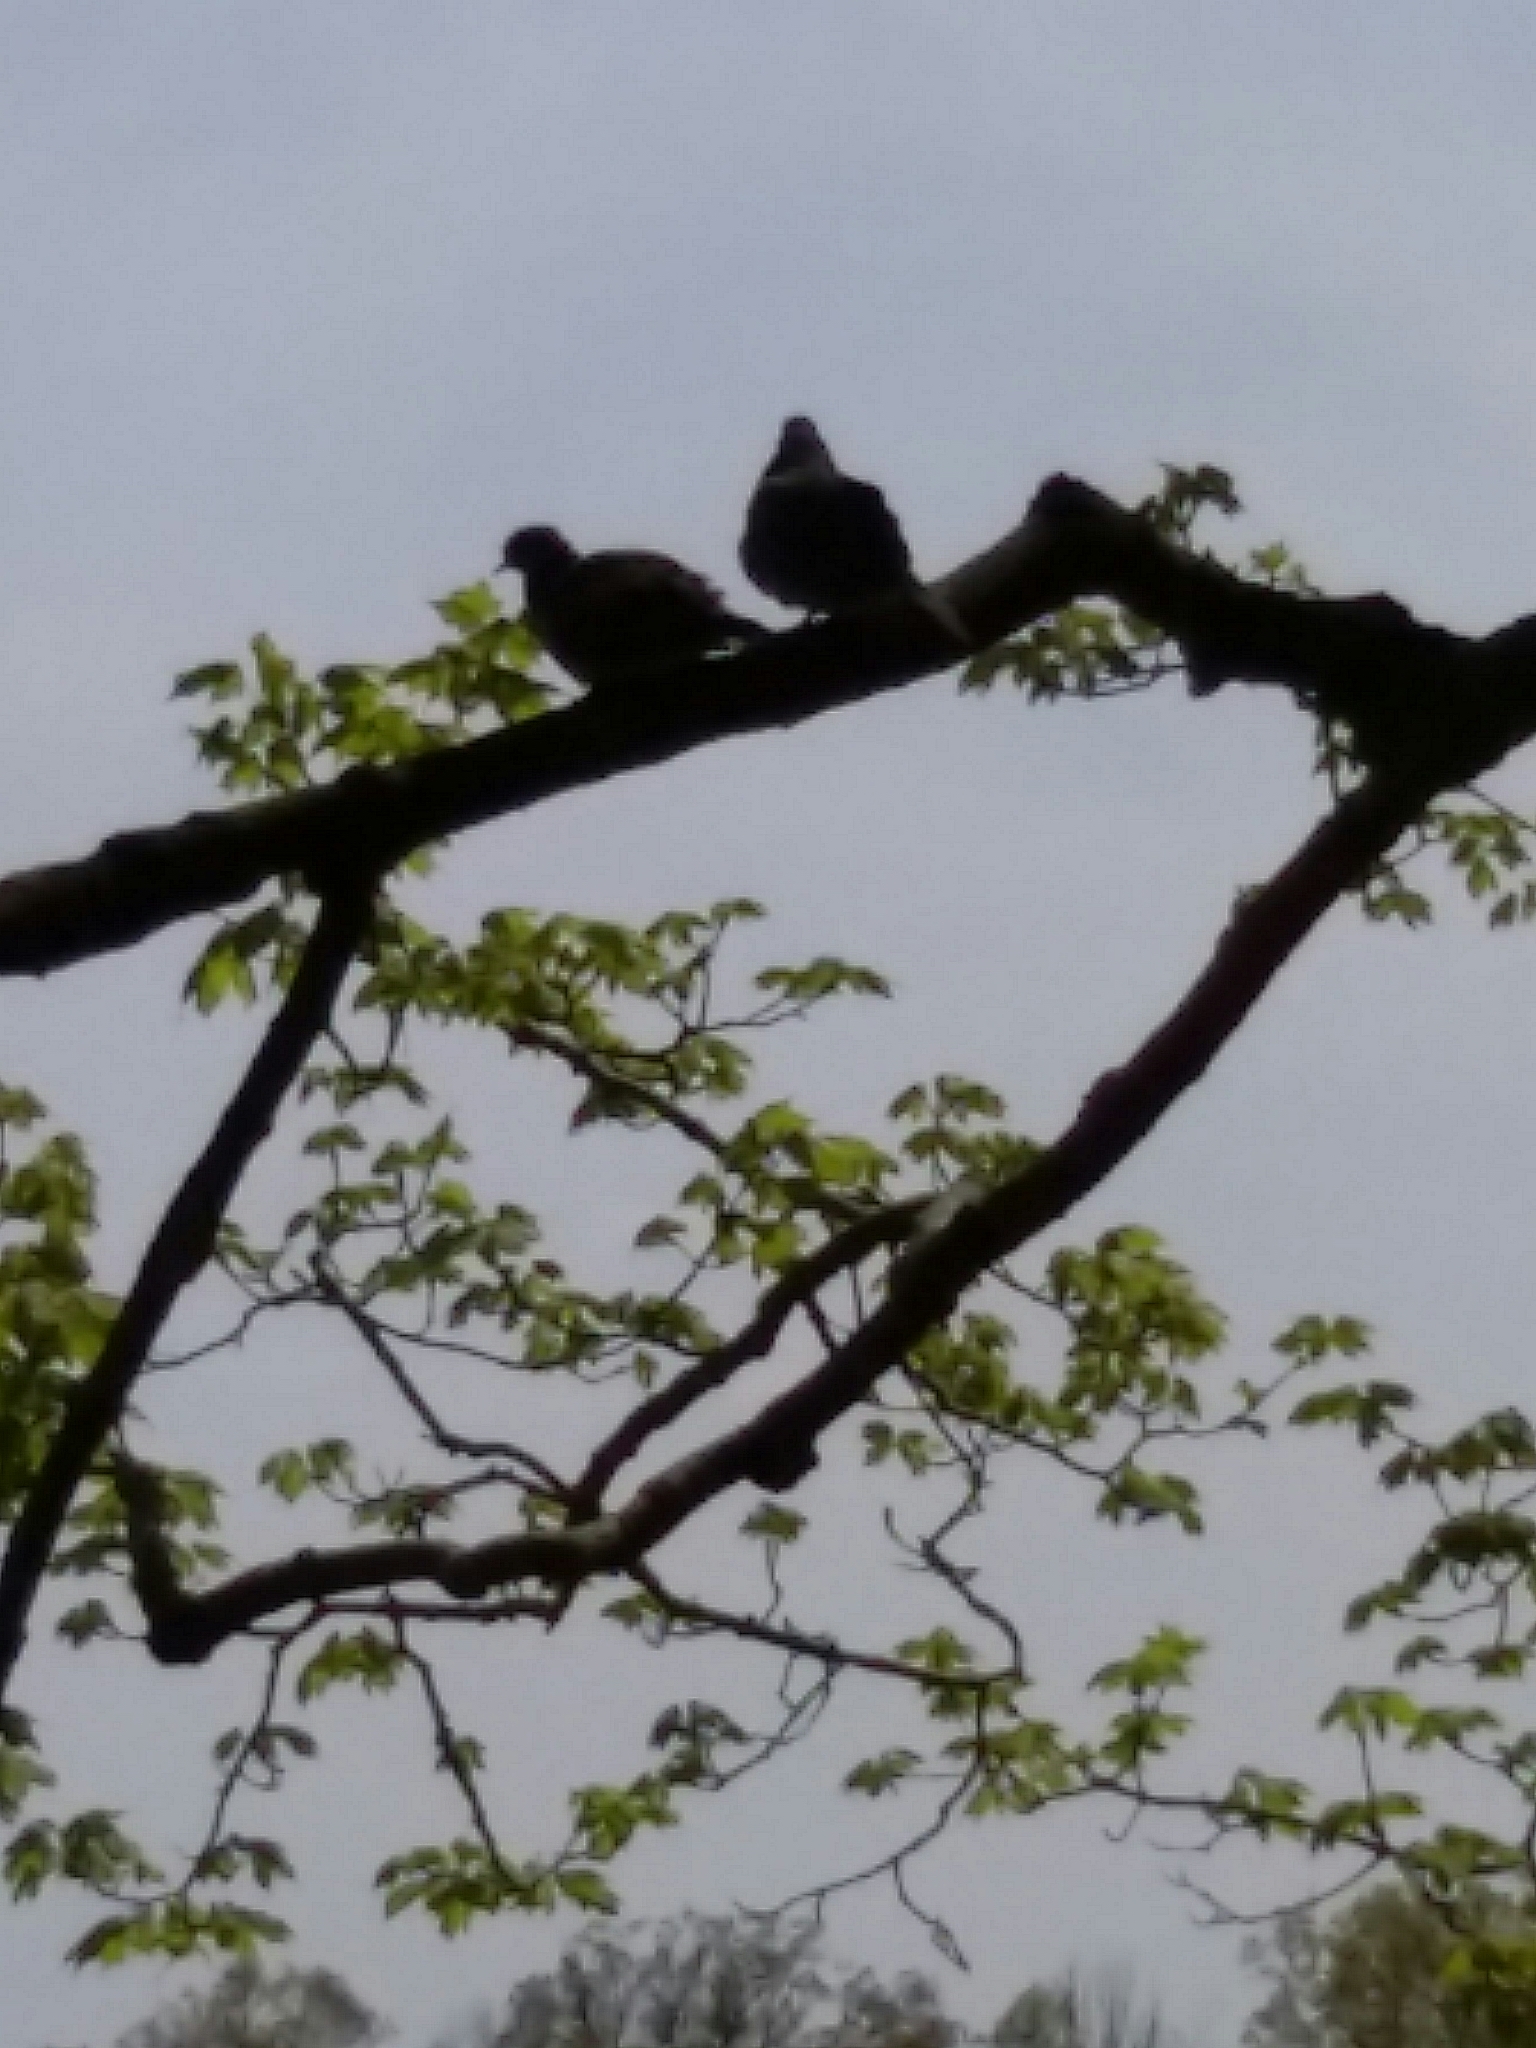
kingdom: Animalia
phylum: Chordata
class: Aves
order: Columbiformes
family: Columbidae
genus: Zenaida
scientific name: Zenaida macroura
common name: Mourning dove
